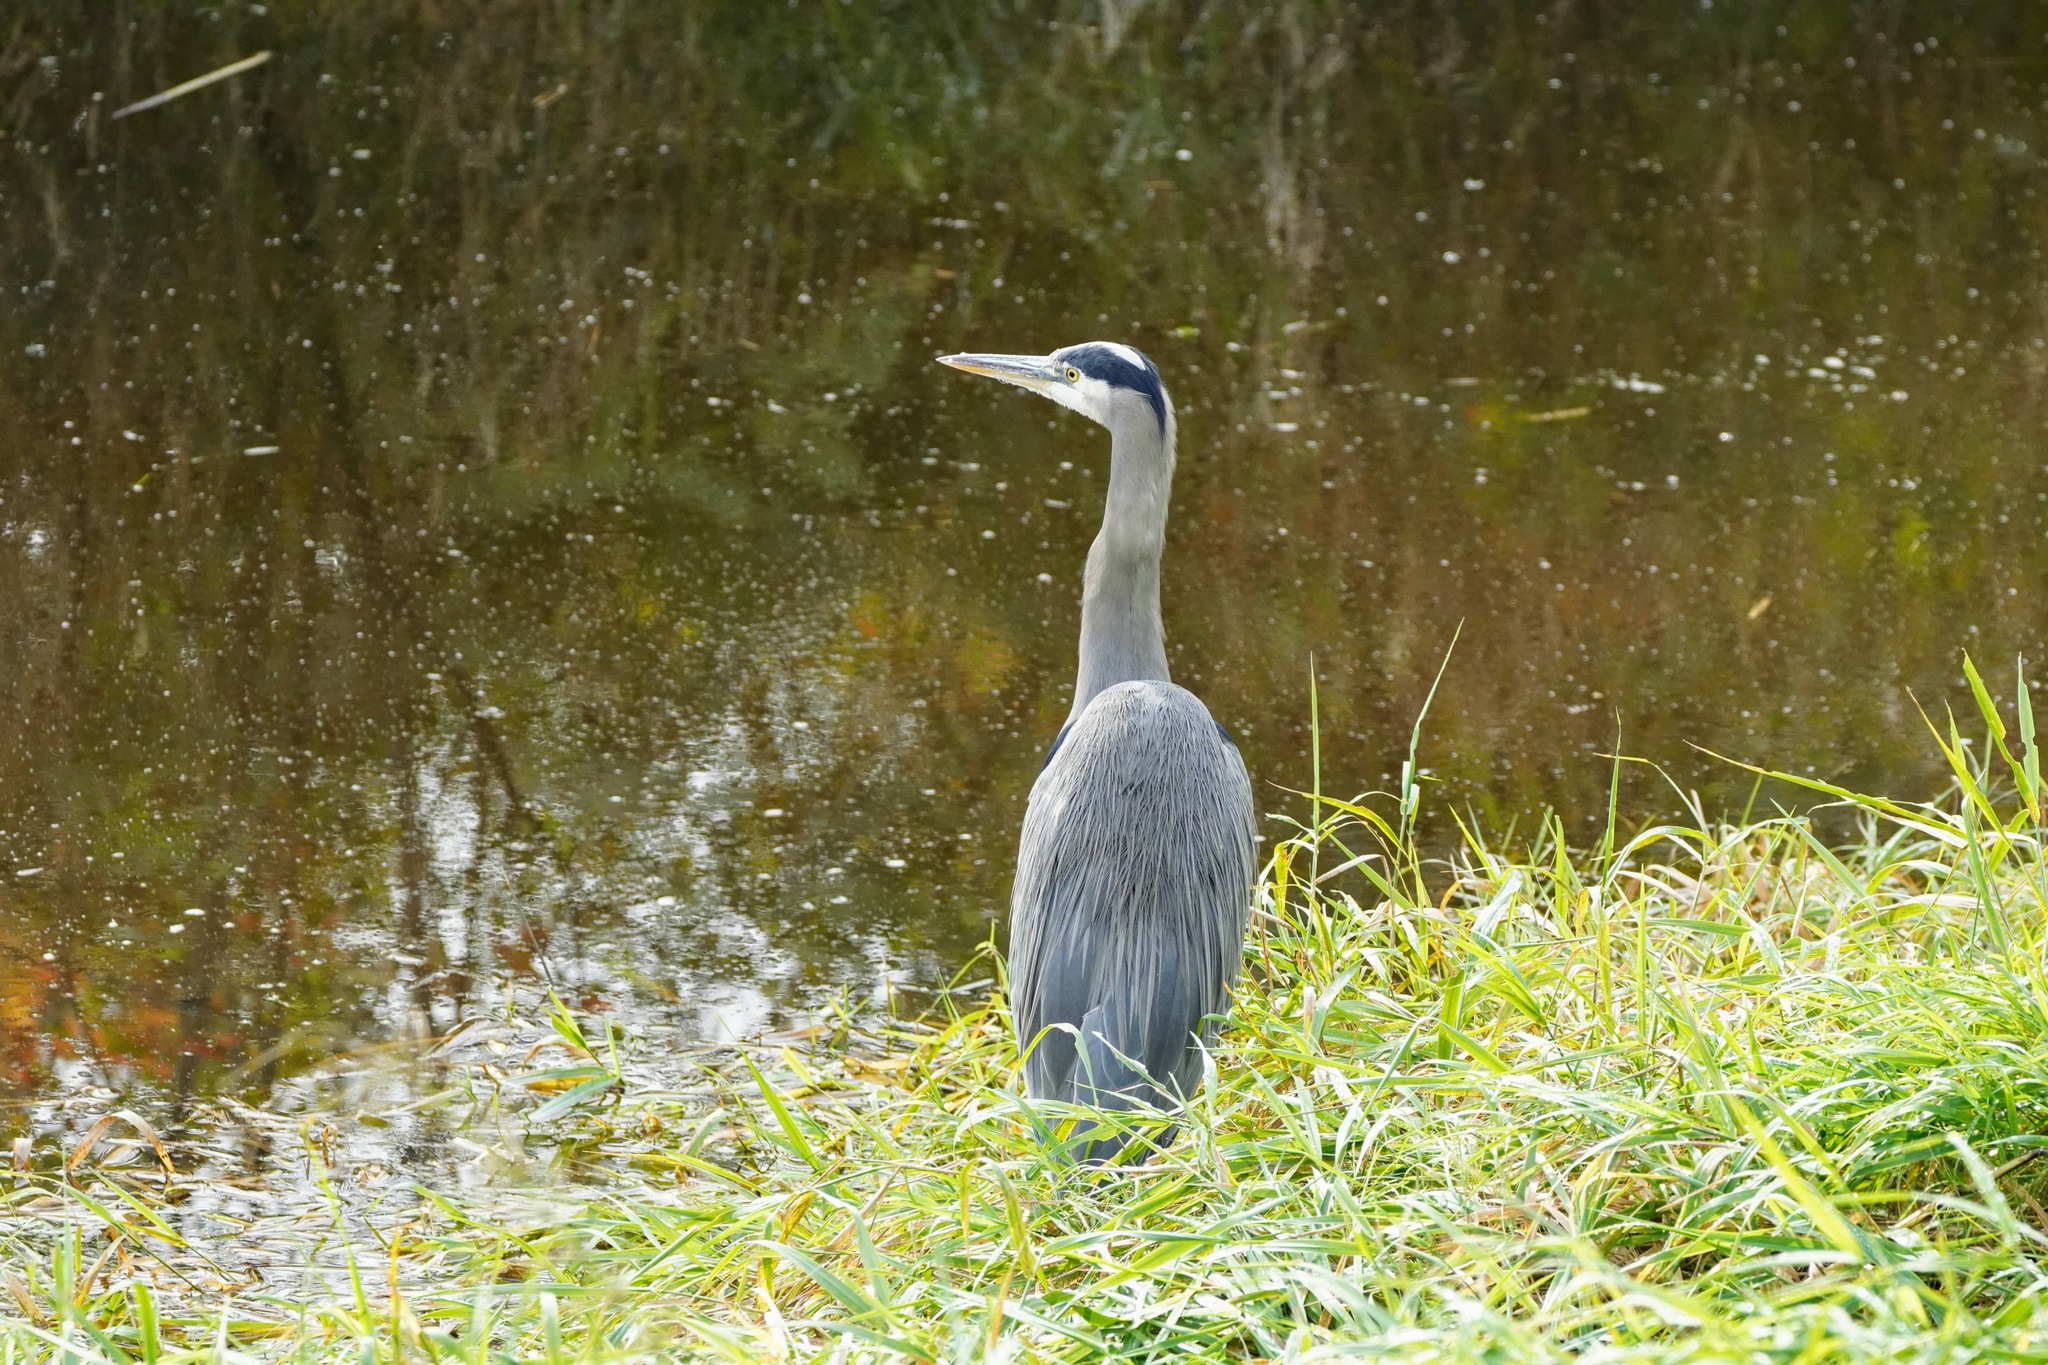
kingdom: Animalia
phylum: Chordata
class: Aves
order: Pelecaniformes
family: Ardeidae
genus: Ardea
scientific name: Ardea herodias
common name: Great blue heron
